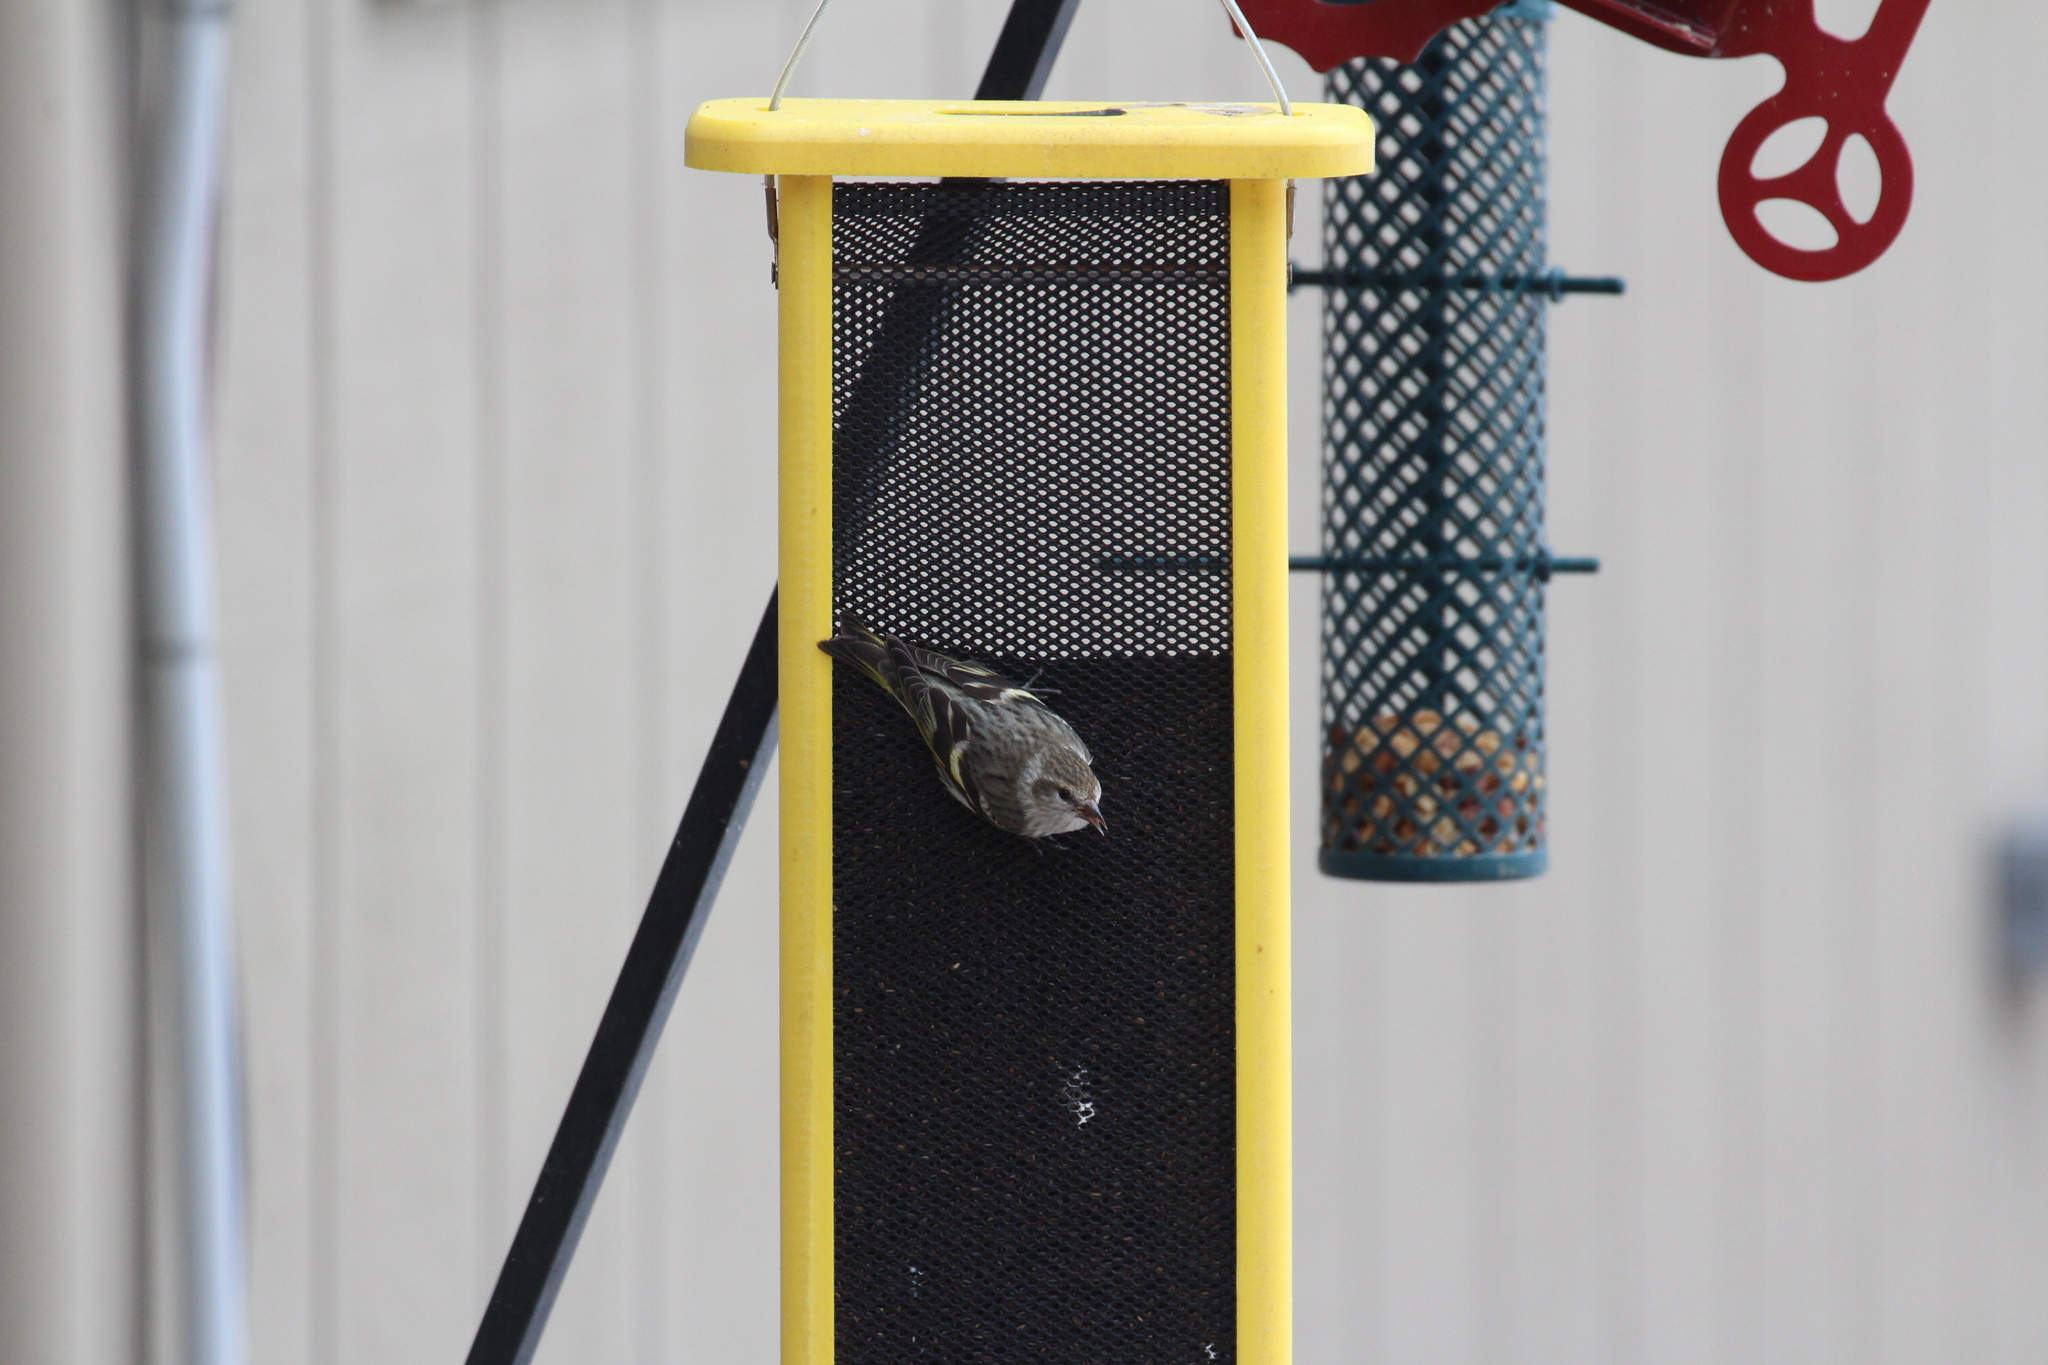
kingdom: Animalia
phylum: Chordata
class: Aves
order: Passeriformes
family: Fringillidae
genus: Spinus
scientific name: Spinus pinus
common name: Pine siskin
